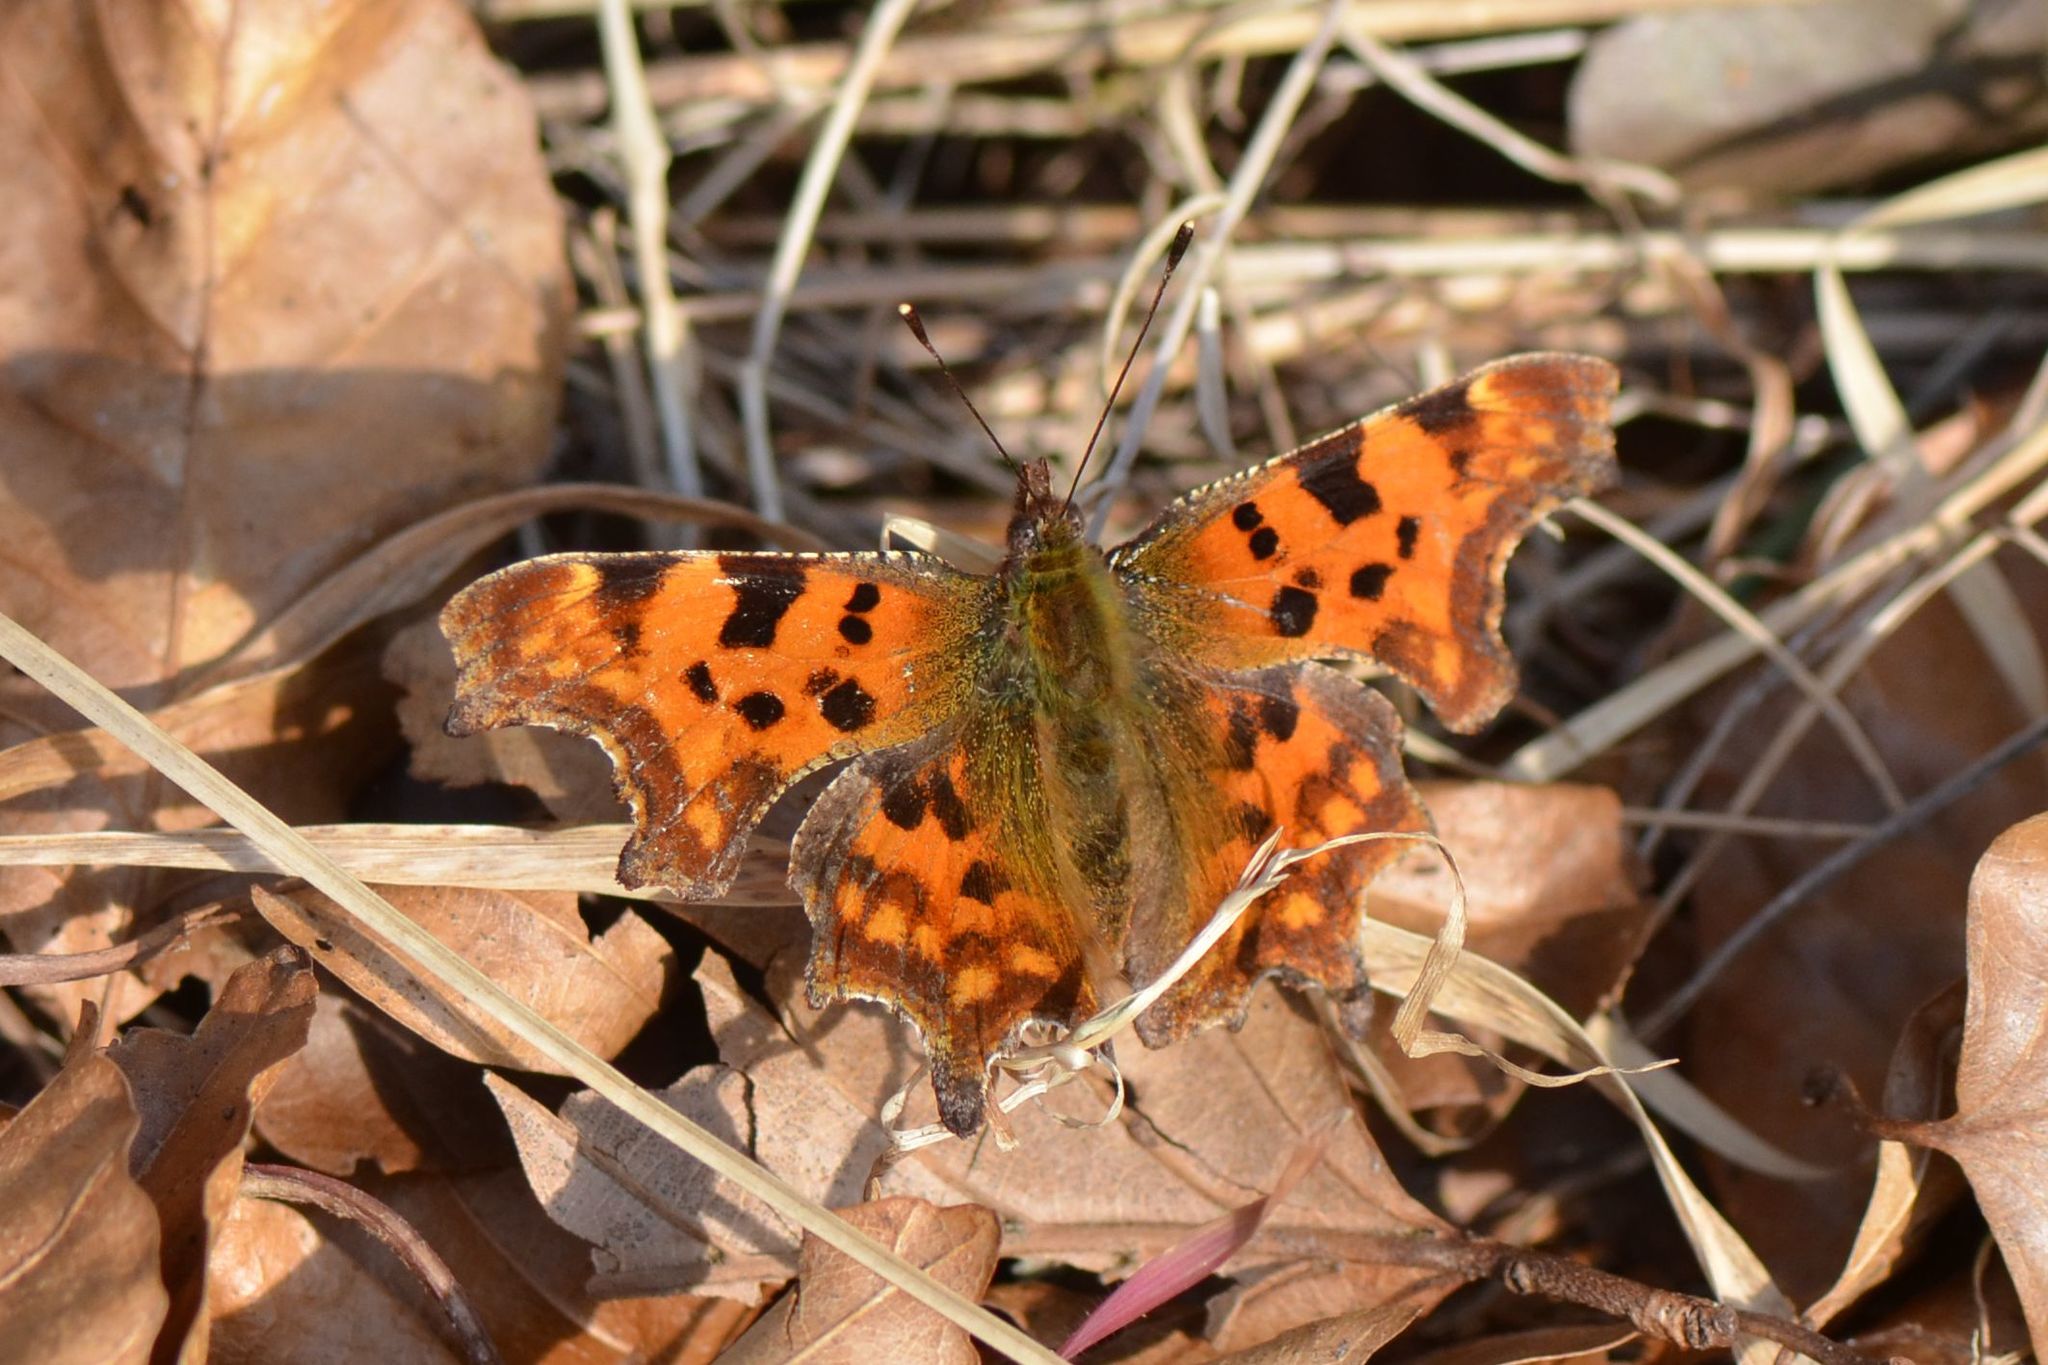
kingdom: Animalia
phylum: Arthropoda
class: Insecta
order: Lepidoptera
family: Nymphalidae
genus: Polygonia
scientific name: Polygonia c-album
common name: Comma
